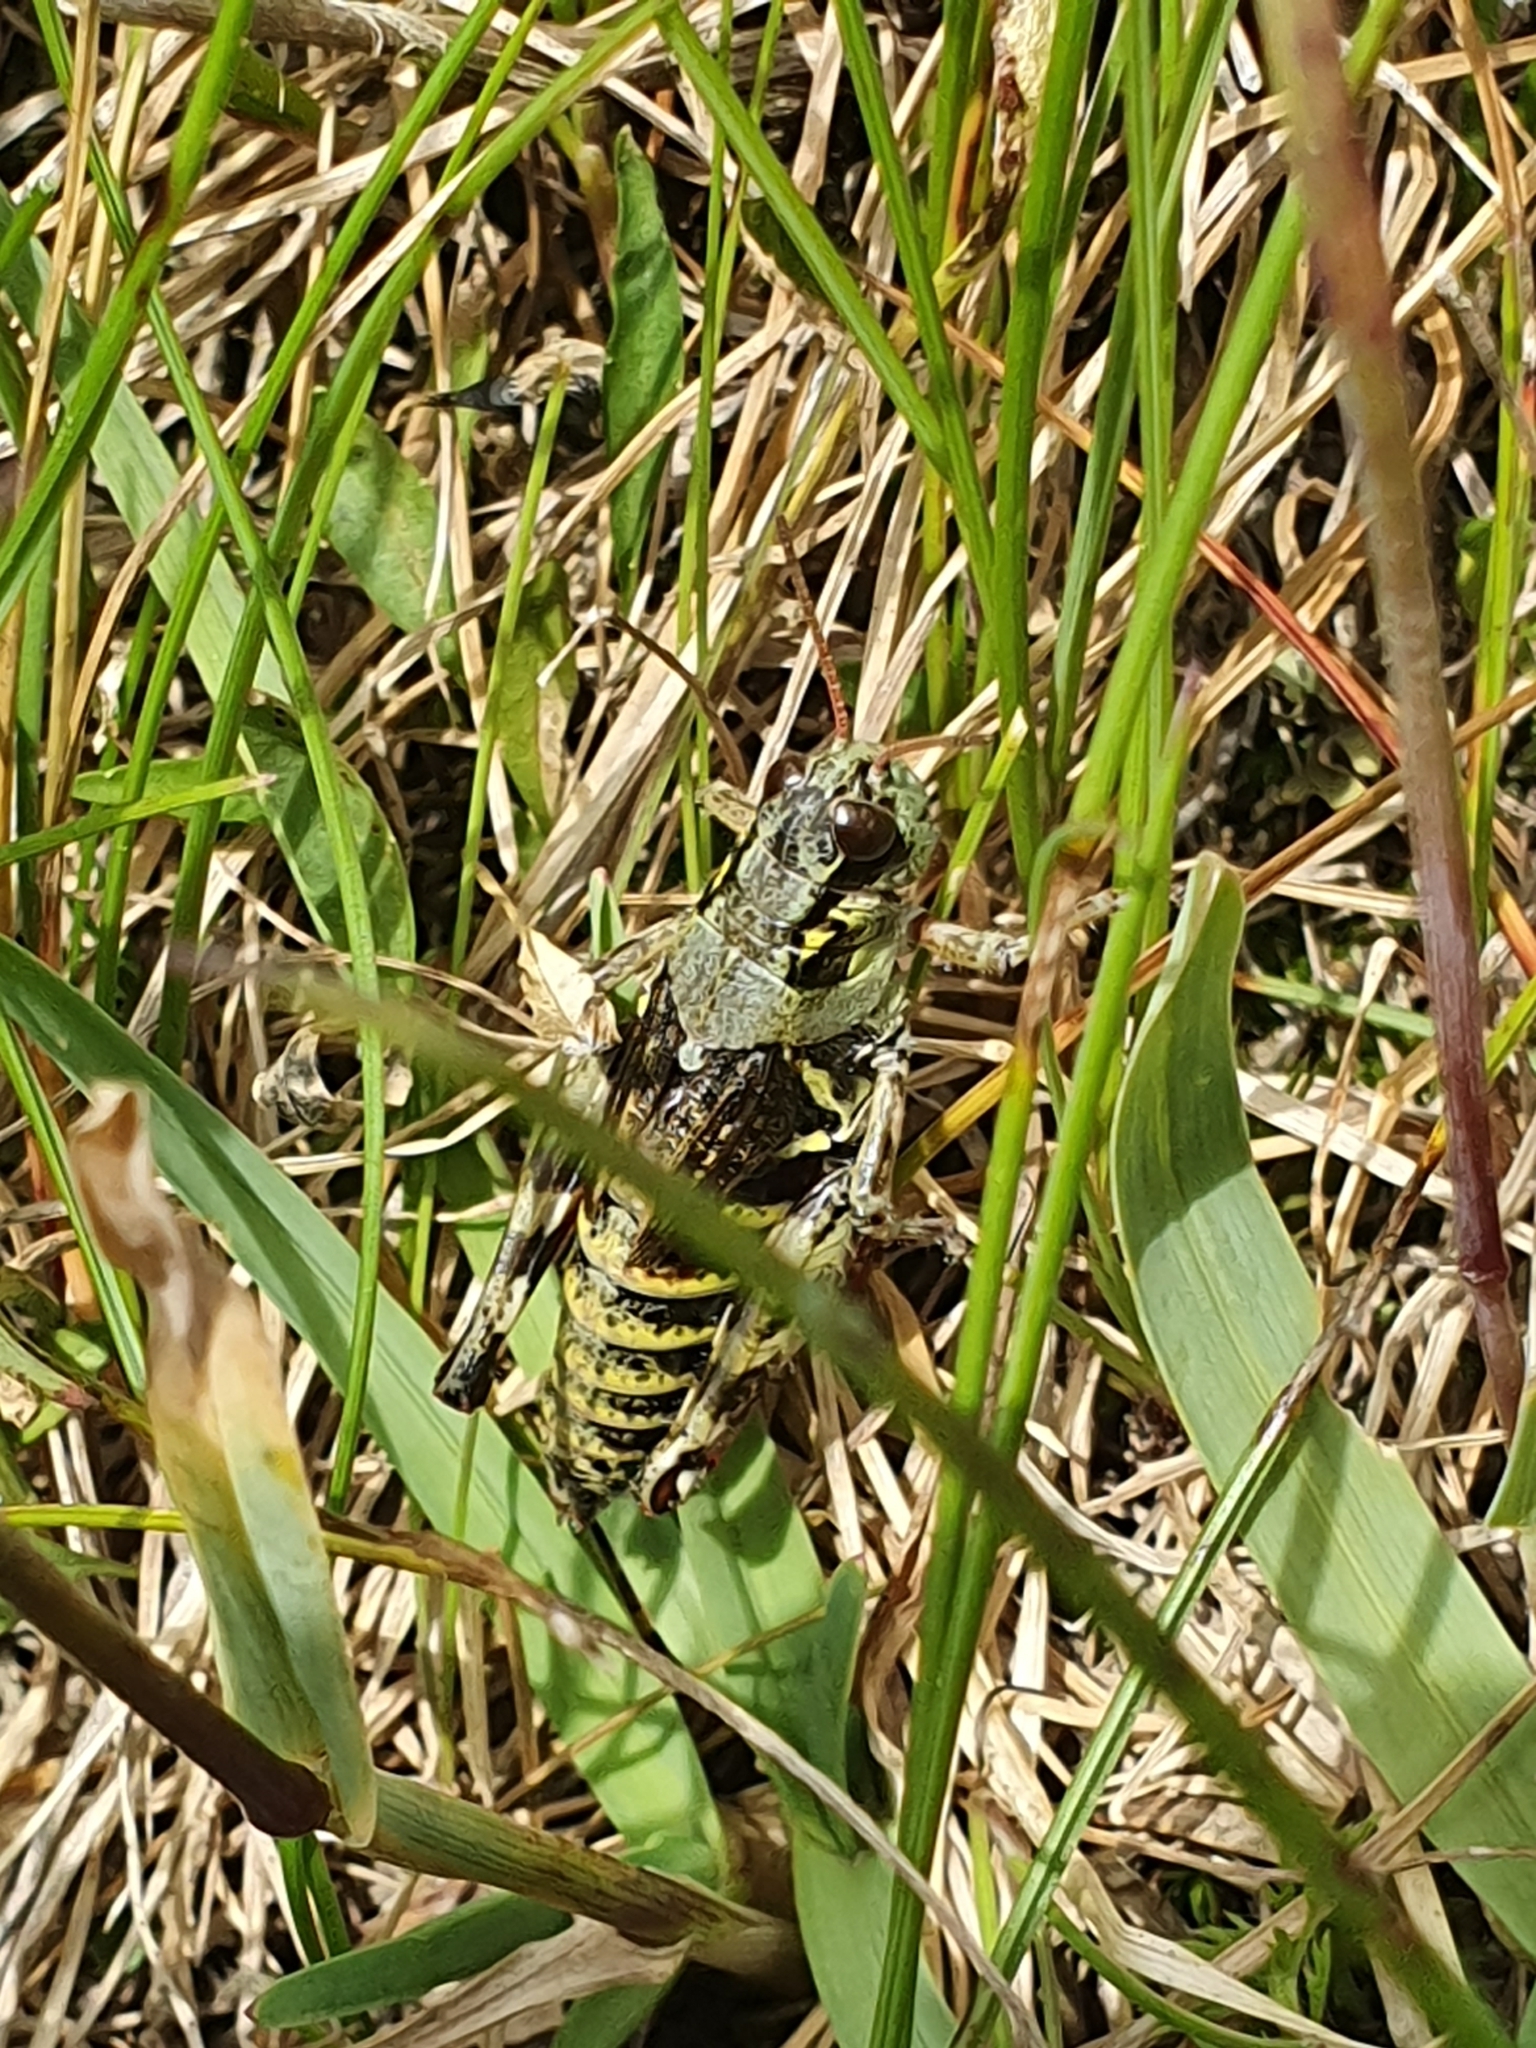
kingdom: Animalia
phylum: Arthropoda
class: Insecta
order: Orthoptera
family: Acrididae
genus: Bohemanella
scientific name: Bohemanella frigida
